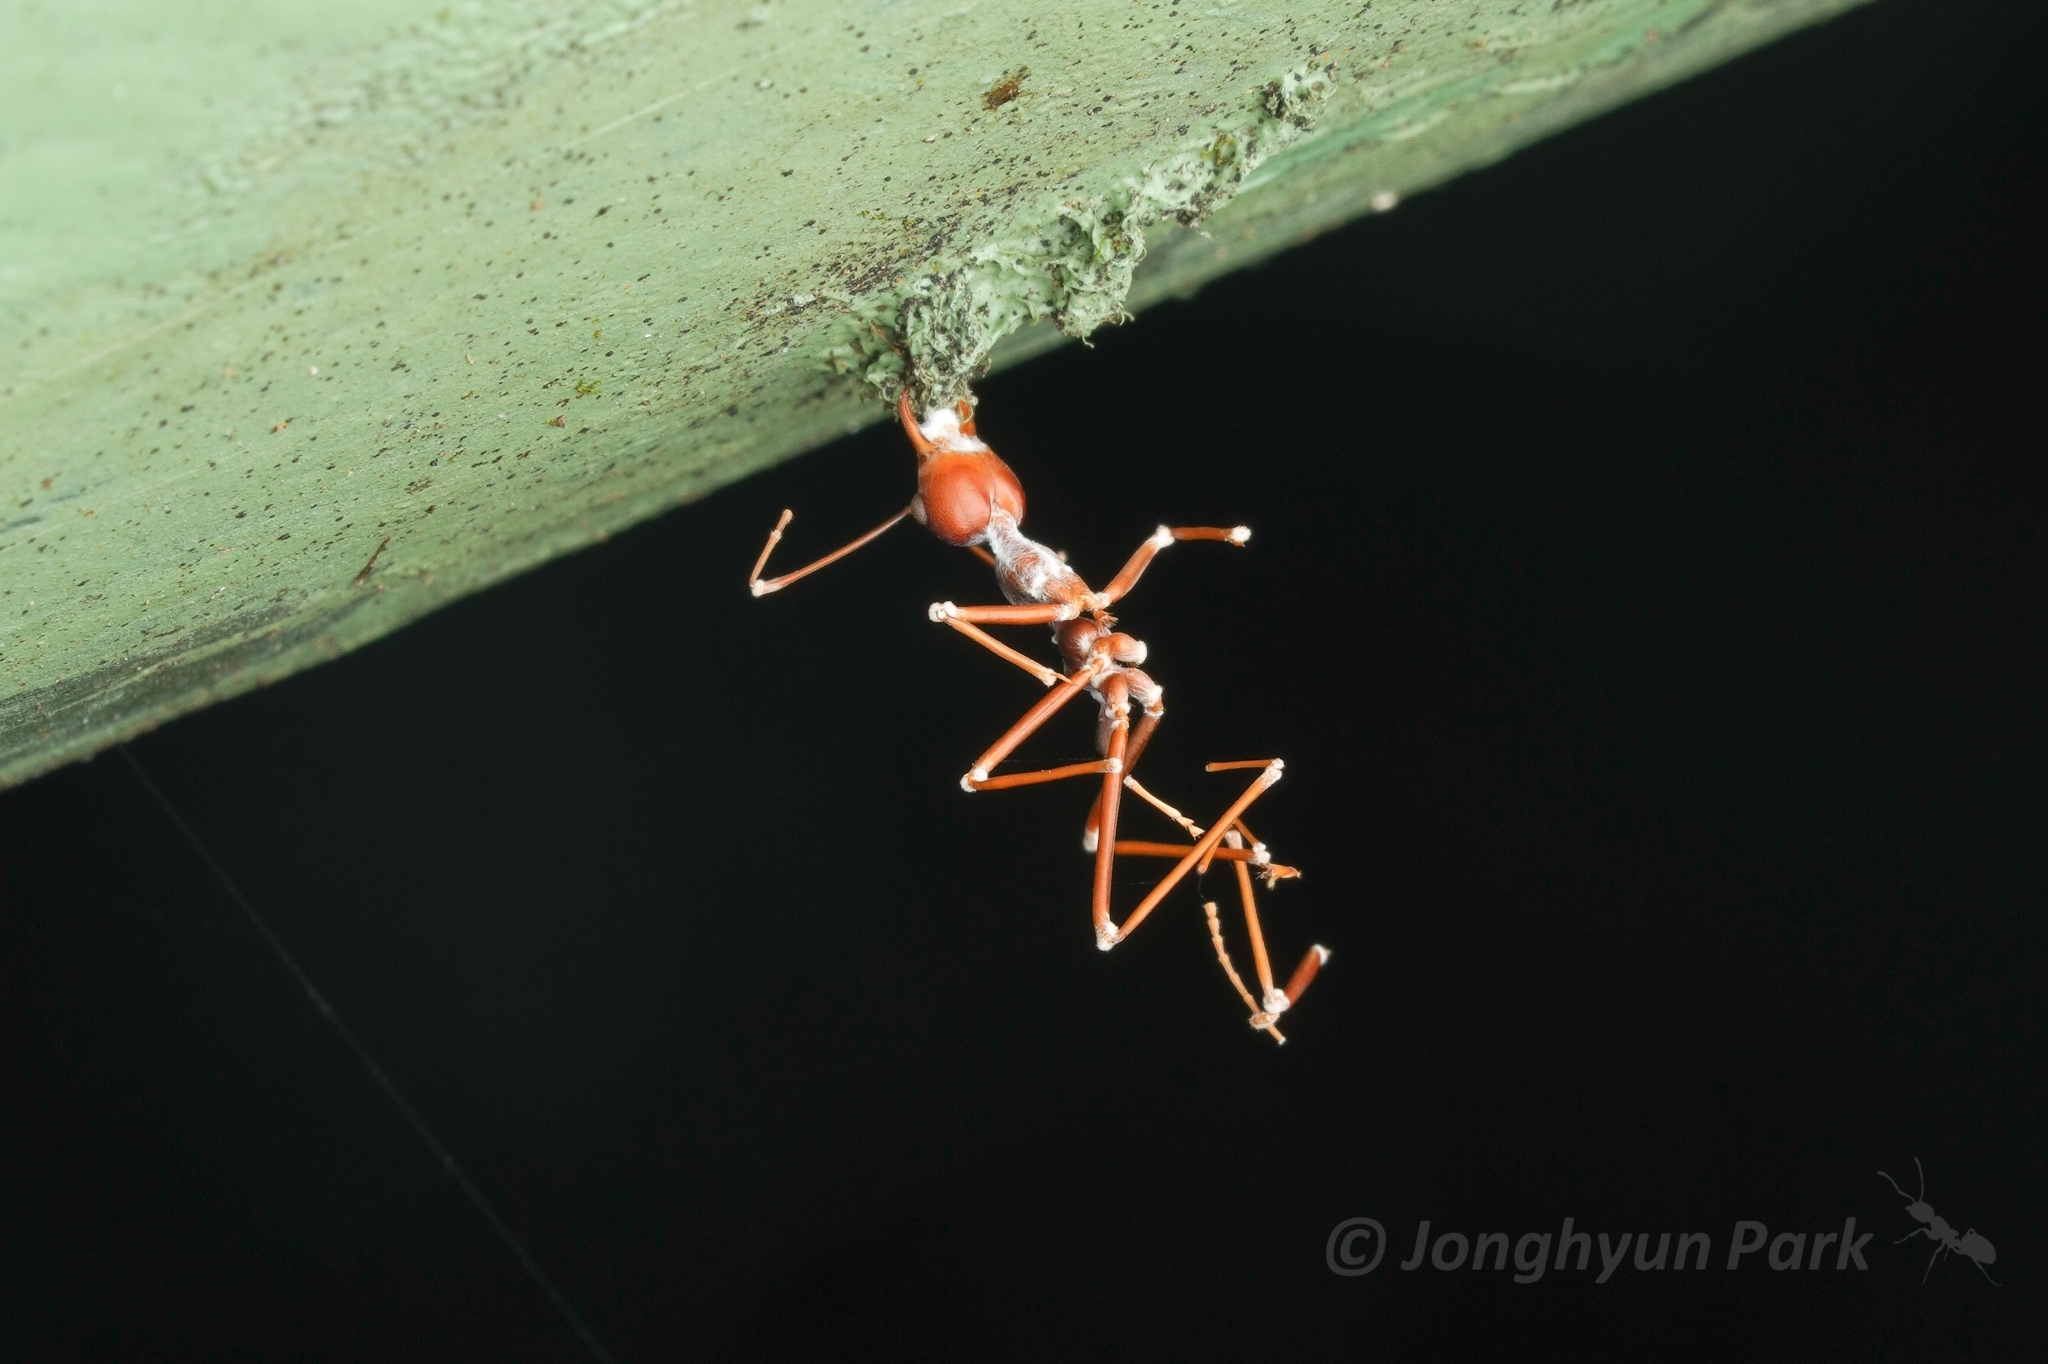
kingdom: Animalia
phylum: Arthropoda
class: Insecta
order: Hymenoptera
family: Formicidae
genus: Oecophylla
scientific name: Oecophylla smaragdina
